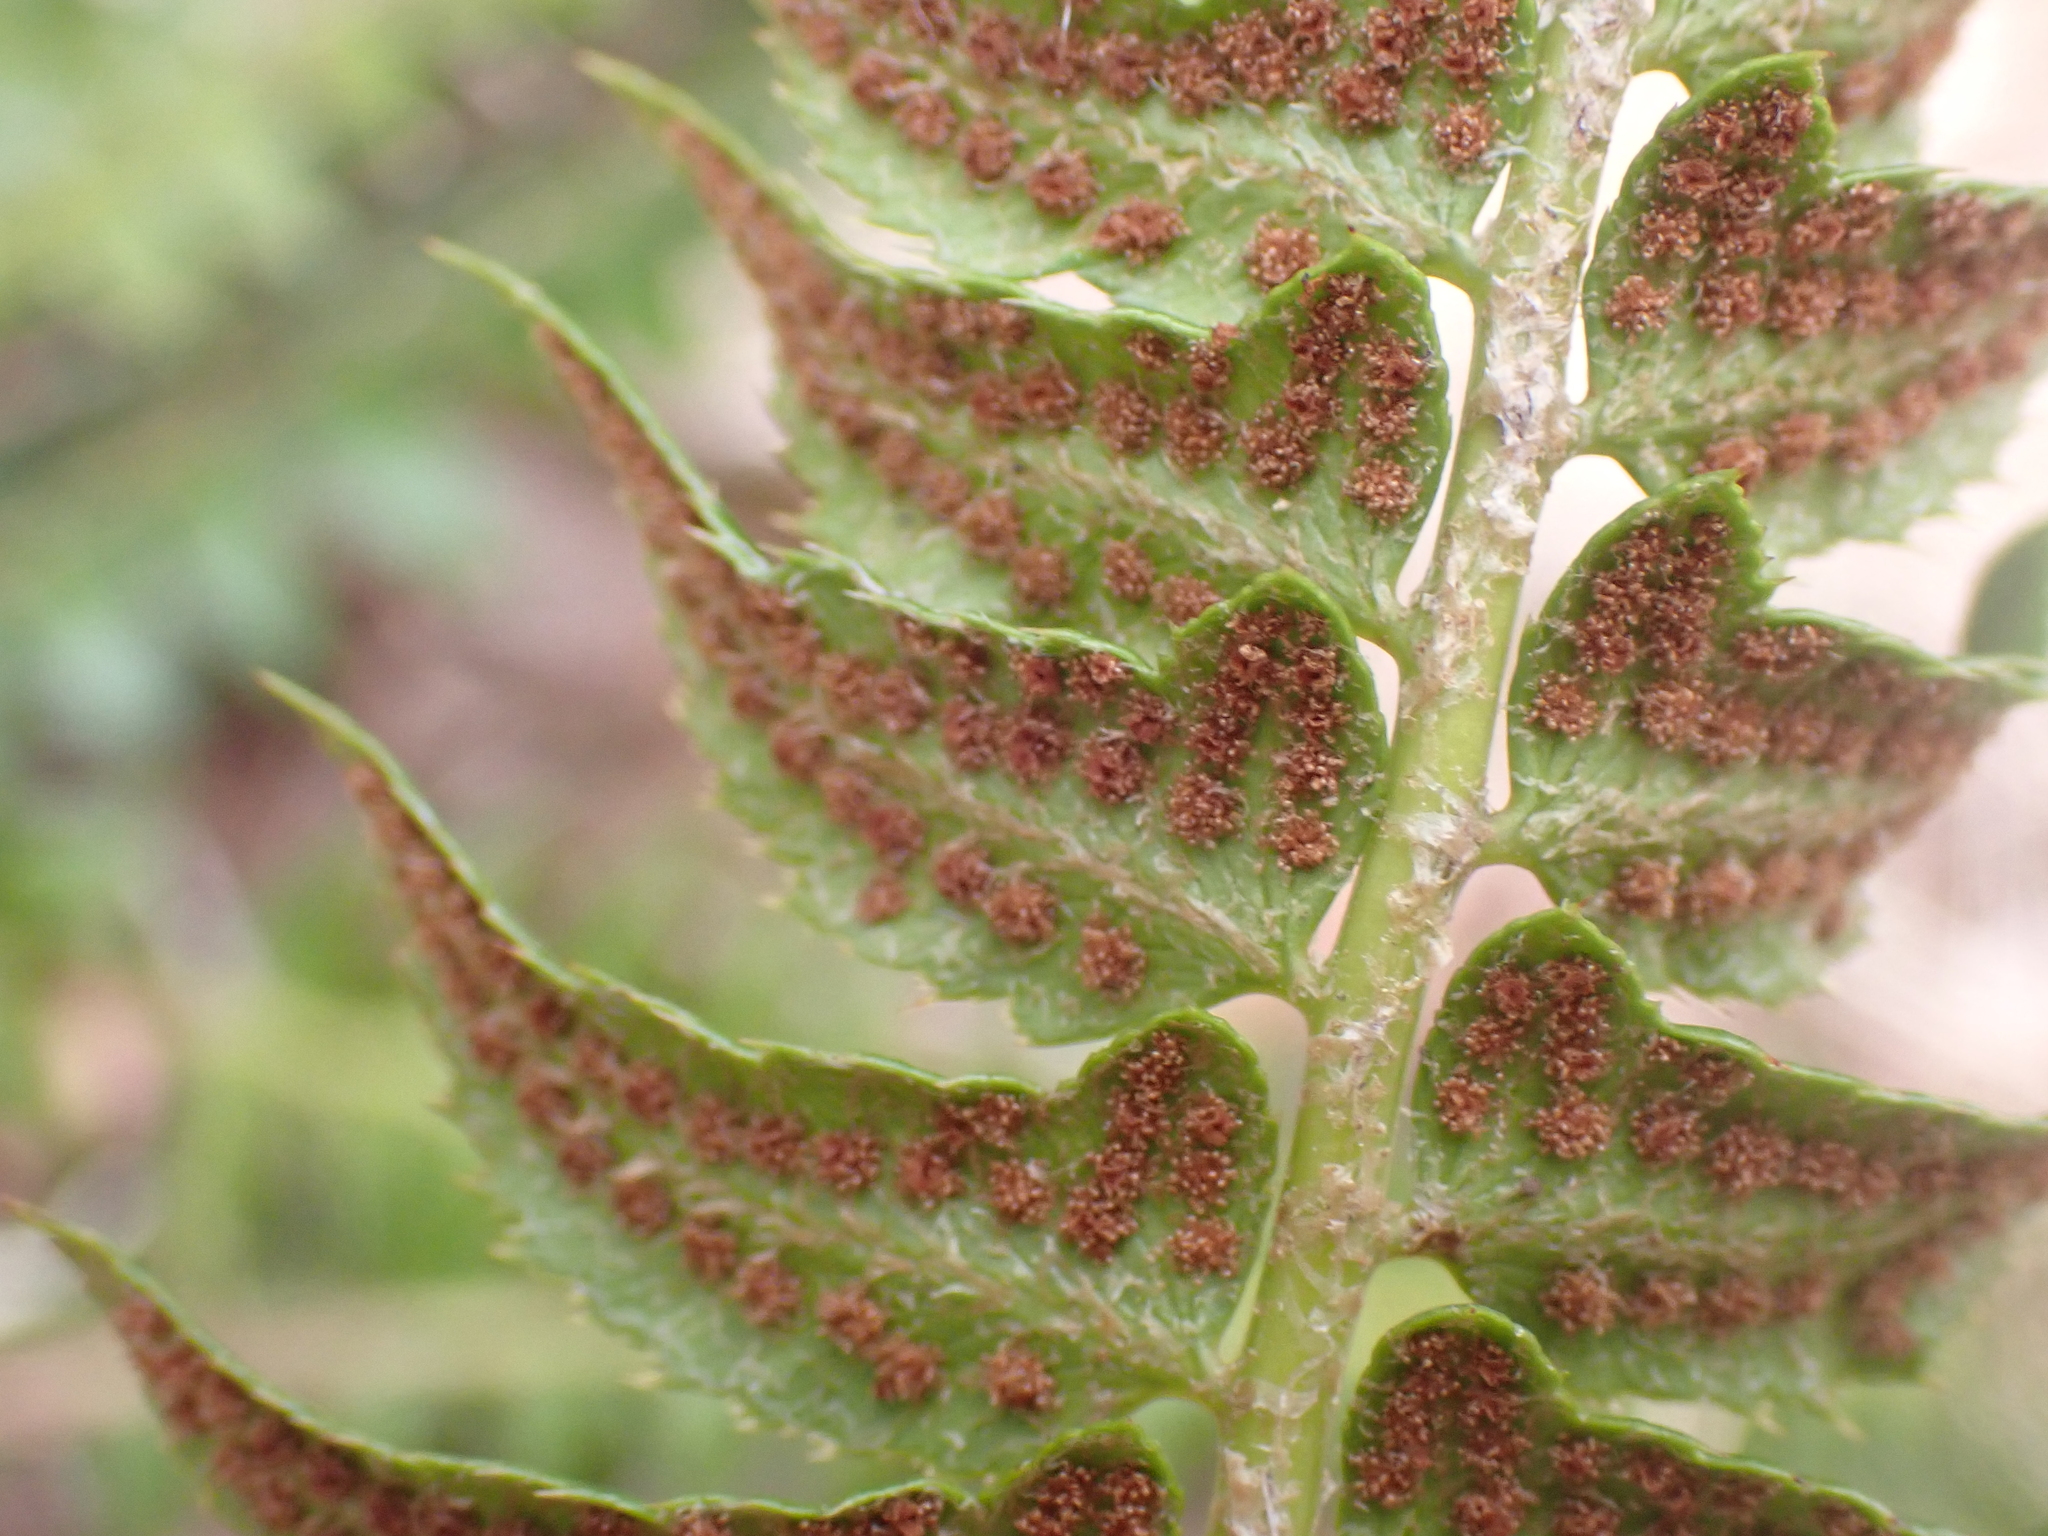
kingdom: Plantae
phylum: Tracheophyta
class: Polypodiopsida
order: Polypodiales
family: Dryopteridaceae
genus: Polystichum
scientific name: Polystichum lonchitis
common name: Holly fern
